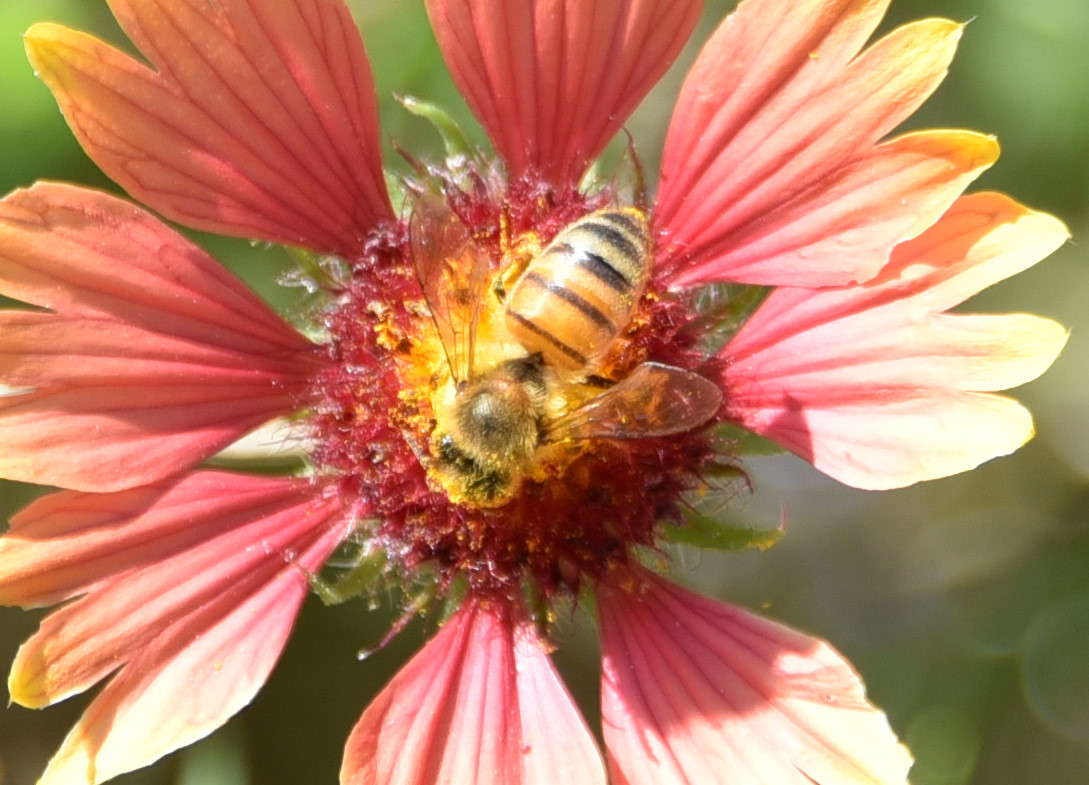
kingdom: Animalia
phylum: Arthropoda
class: Insecta
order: Hymenoptera
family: Apidae
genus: Apis
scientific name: Apis mellifera
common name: Honey bee
